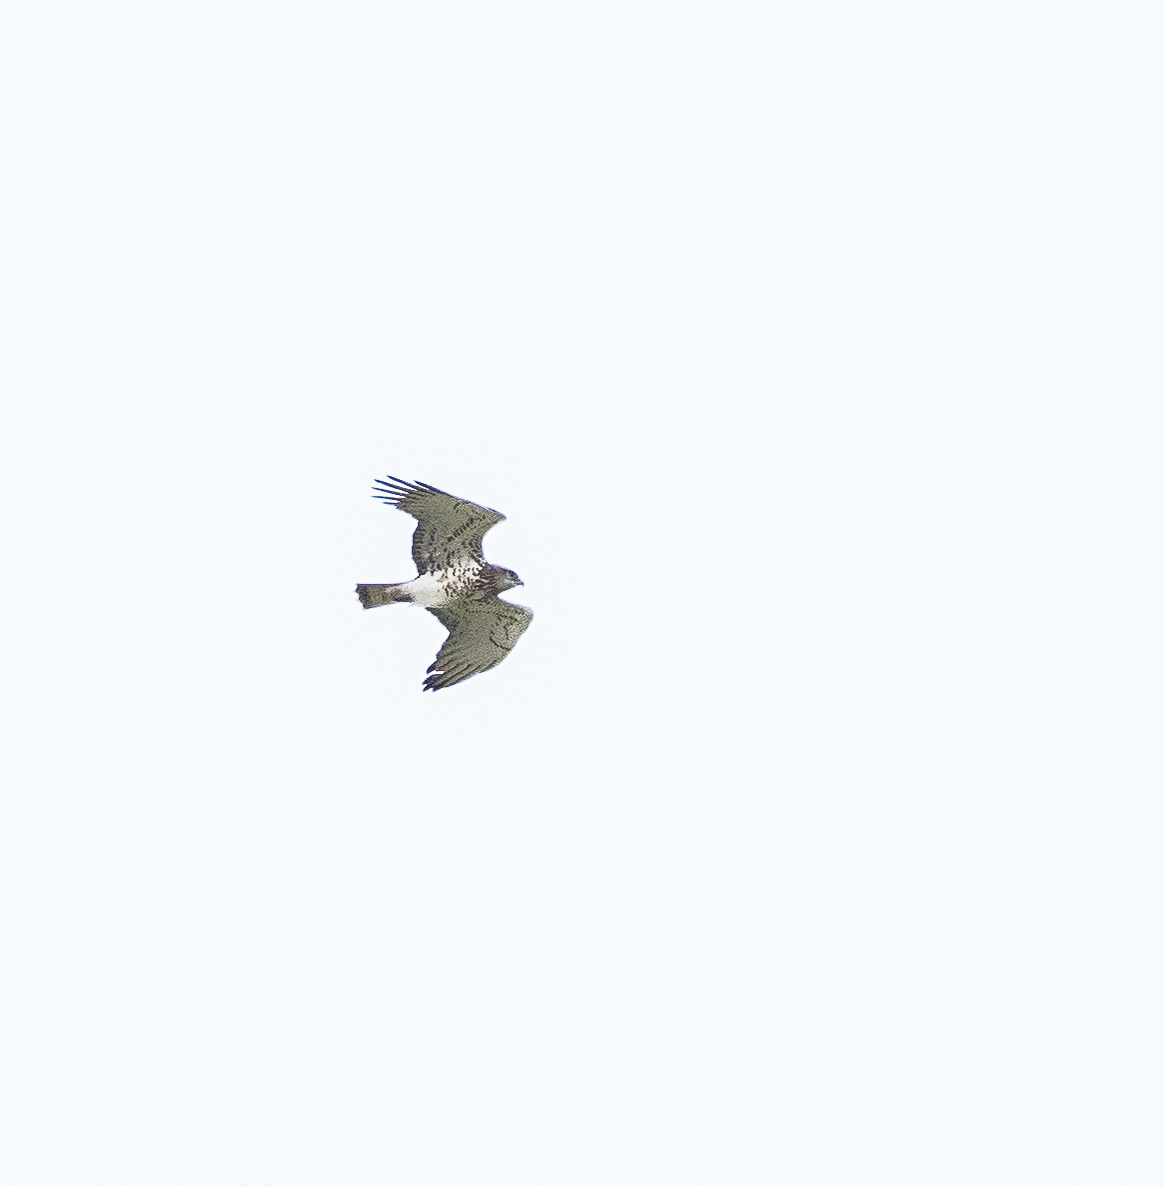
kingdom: Animalia
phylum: Chordata
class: Aves
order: Accipitriformes
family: Accipitridae
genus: Circaetus
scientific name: Circaetus gallicus
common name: Short-toed snake eagle
